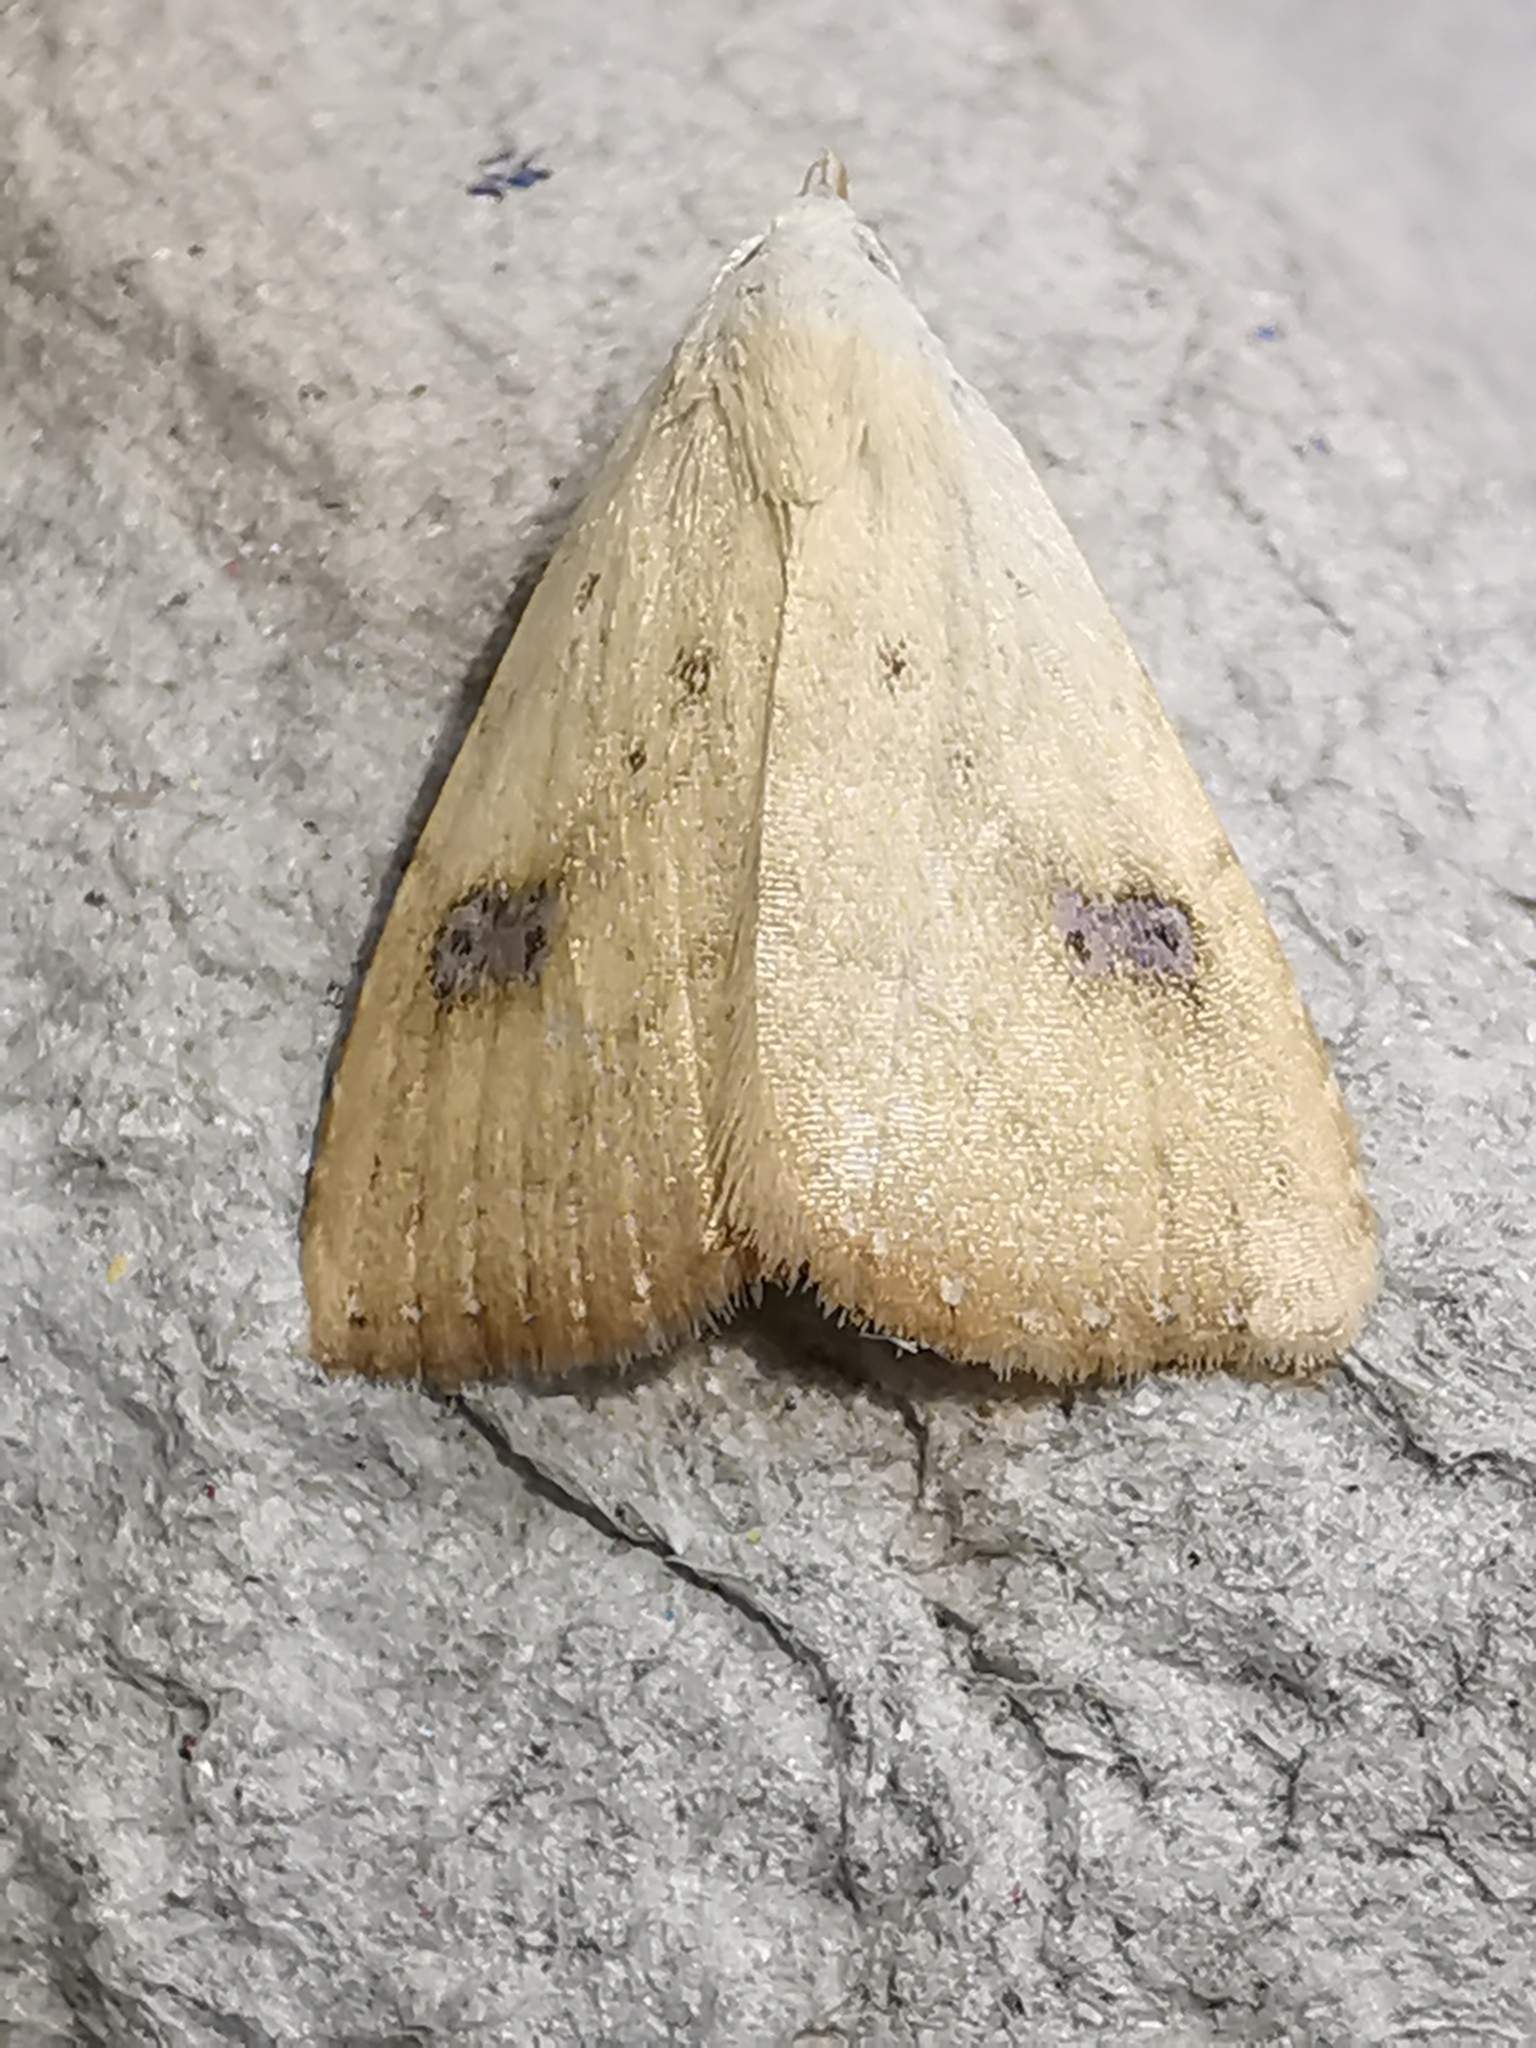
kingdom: Animalia
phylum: Arthropoda
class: Insecta
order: Lepidoptera
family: Erebidae
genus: Rivula
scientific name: Rivula sericealis
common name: Straw dot
